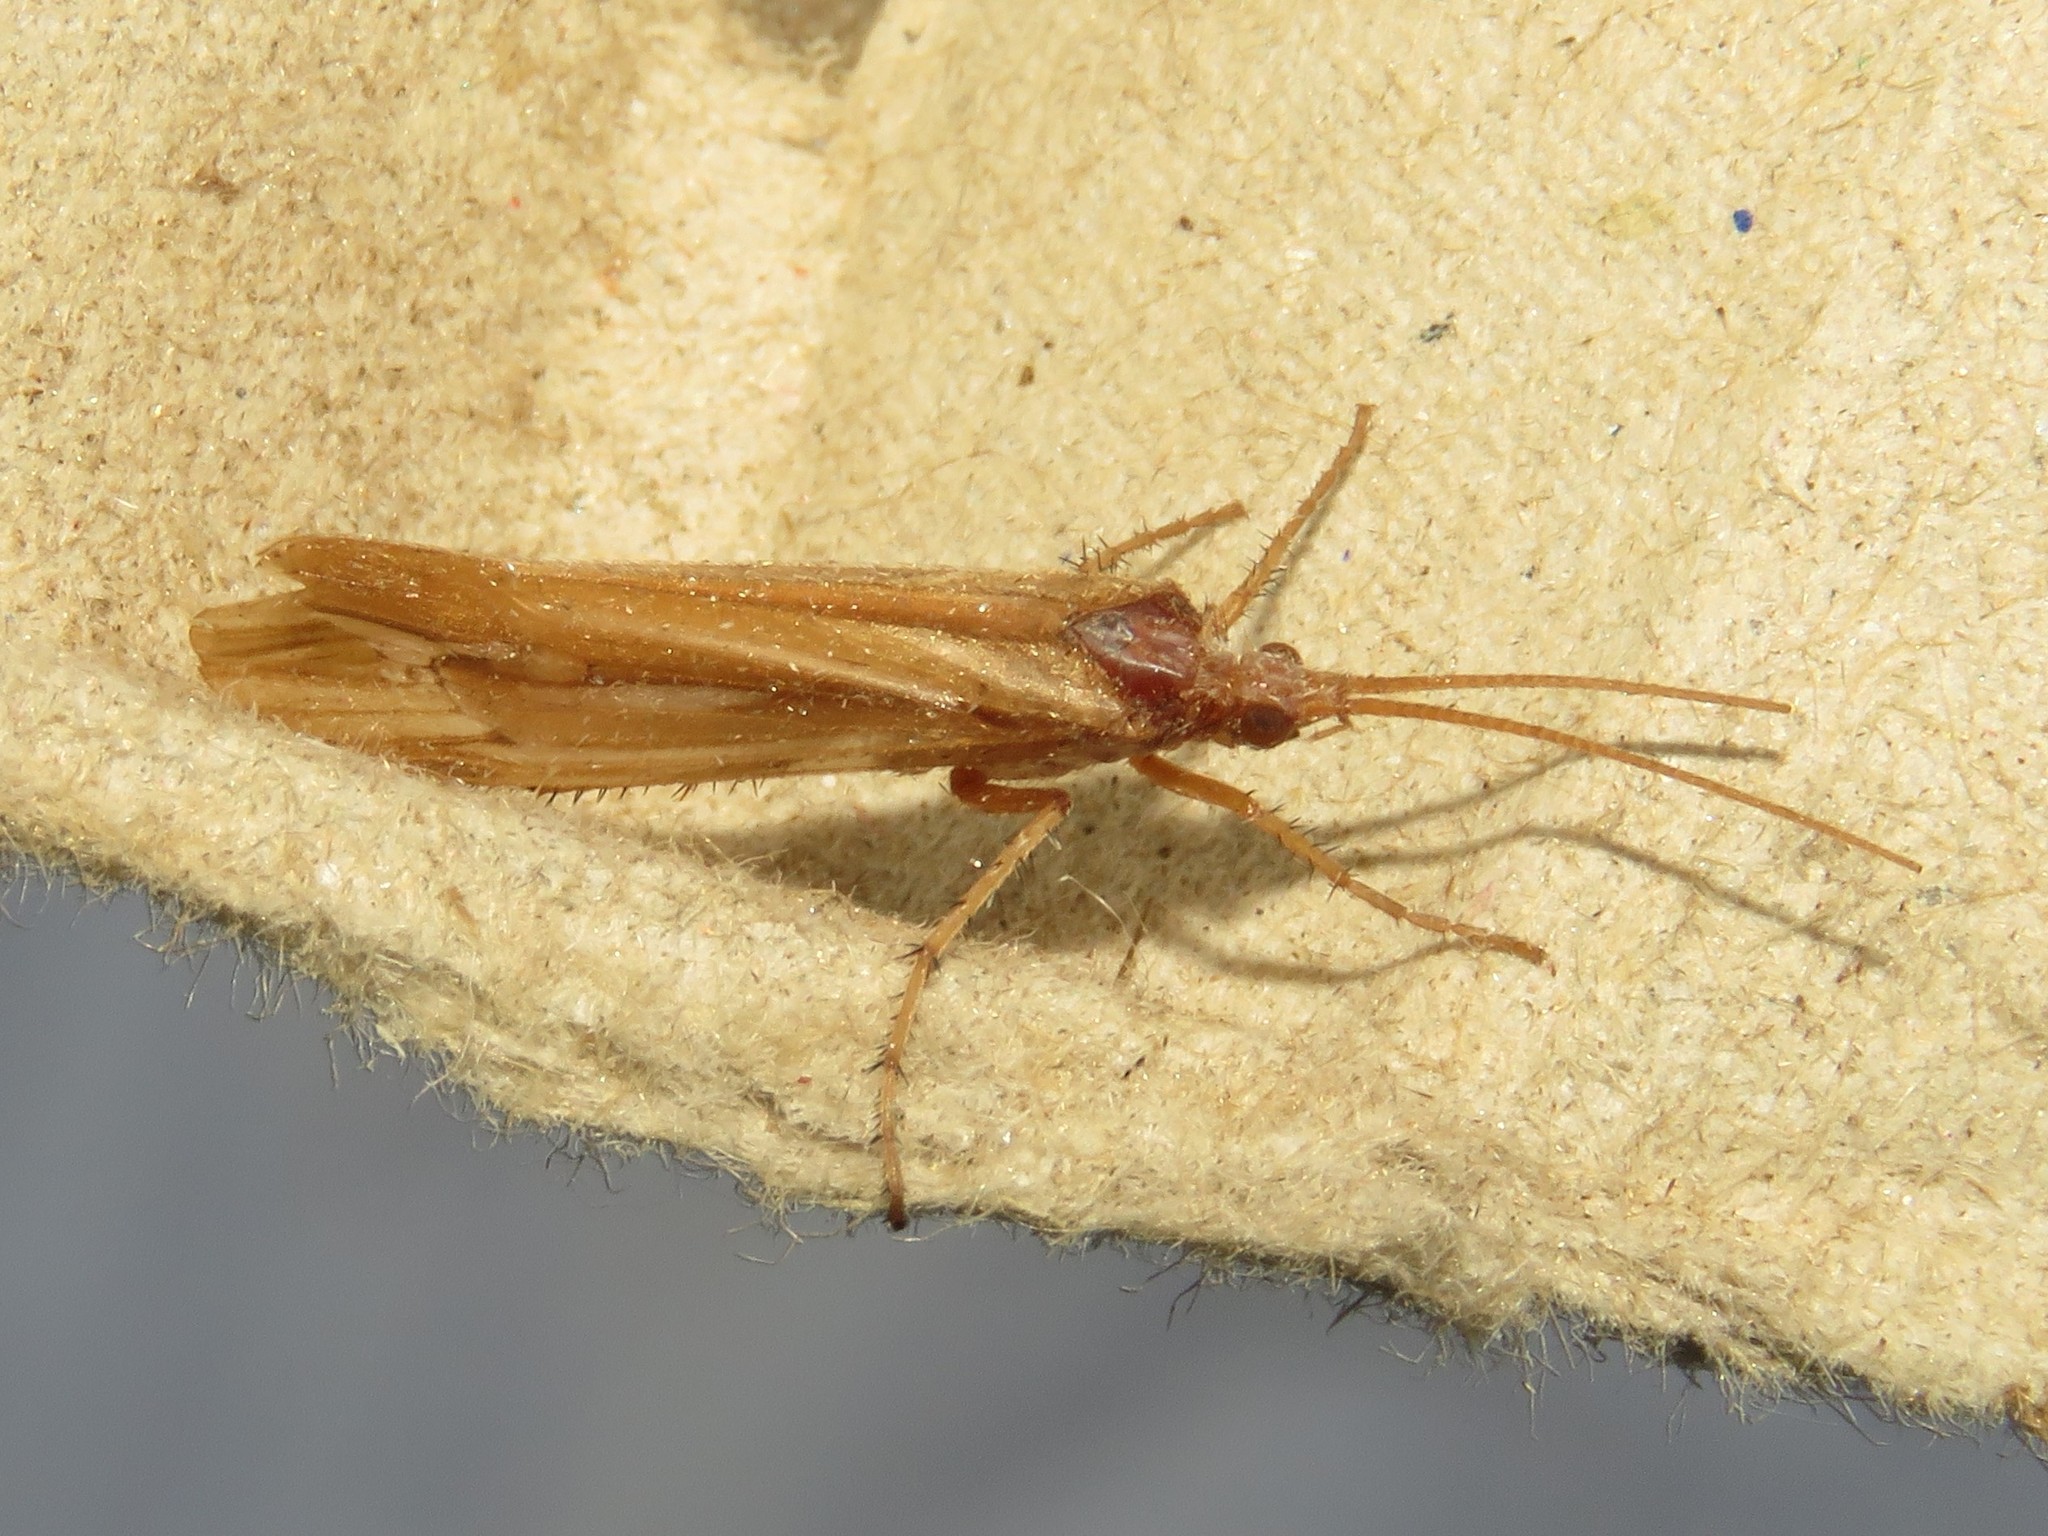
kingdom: Animalia
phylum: Arthropoda
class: Insecta
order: Trichoptera
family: Limnephilidae
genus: Limnephilus
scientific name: Limnephilus ornatus
